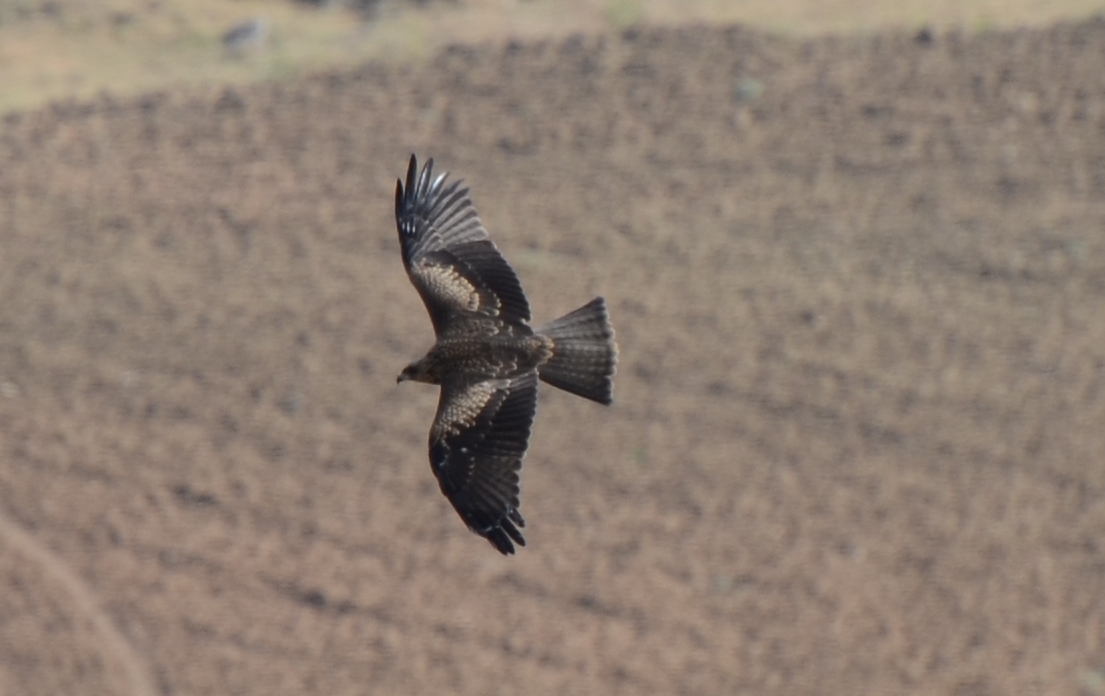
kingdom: Animalia
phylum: Chordata
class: Aves
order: Accipitriformes
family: Accipitridae
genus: Milvus
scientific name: Milvus migrans
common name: Black kite
